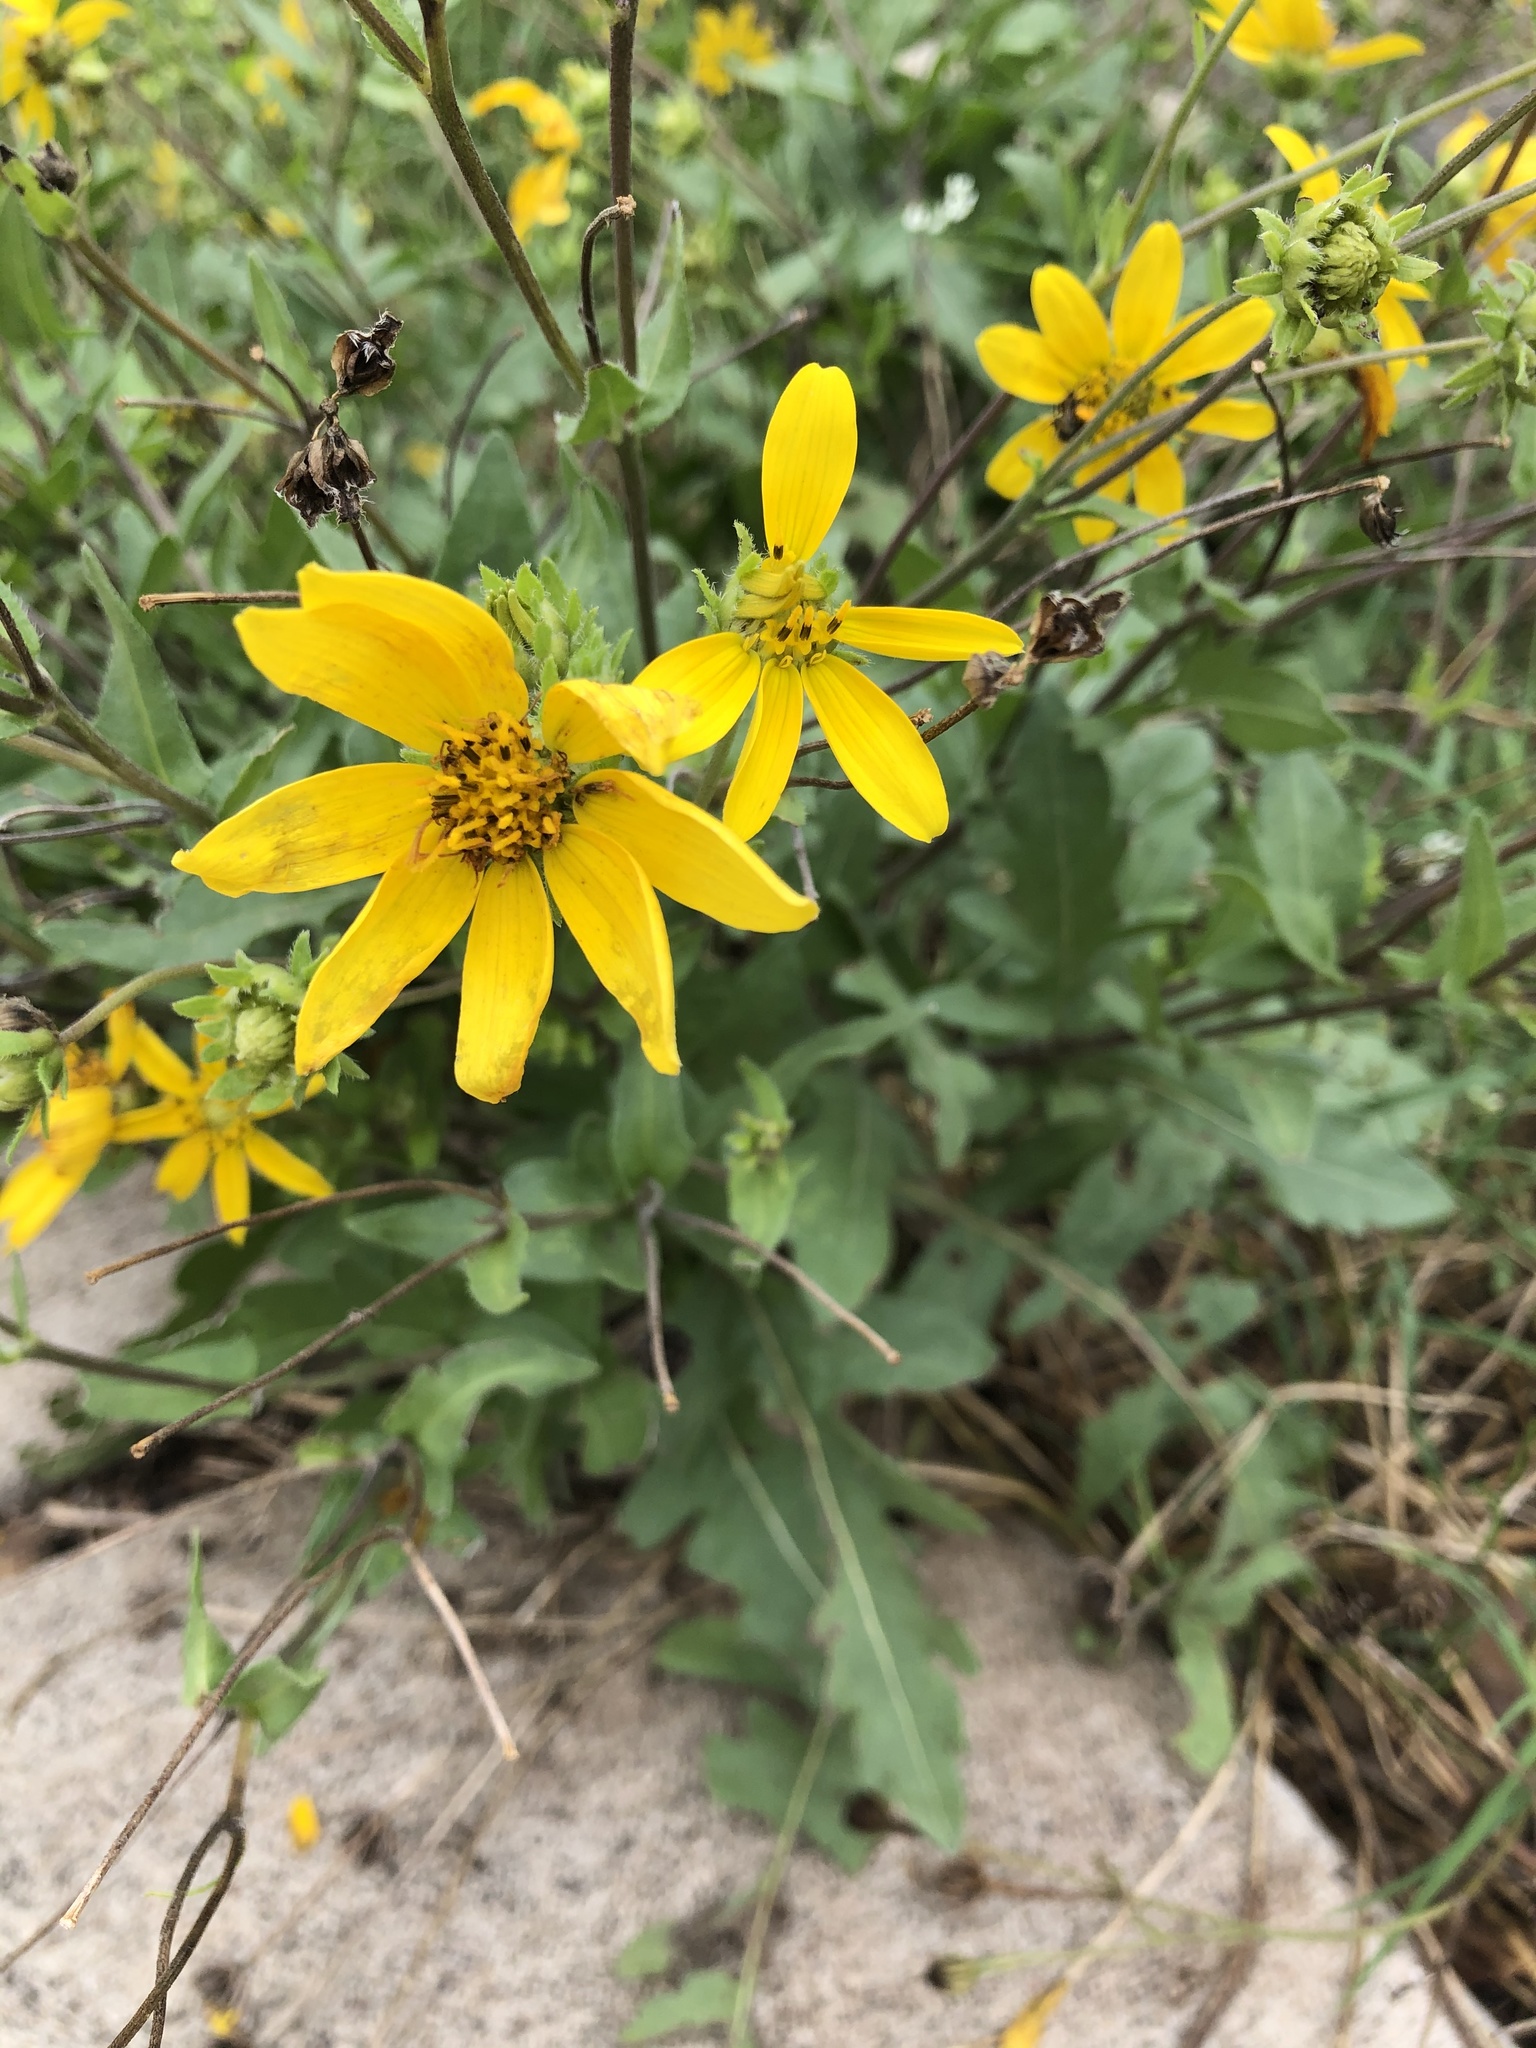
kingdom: Plantae
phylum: Tracheophyta
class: Magnoliopsida
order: Asterales
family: Asteraceae
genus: Engelmannia
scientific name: Engelmannia peristenia
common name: Engelmann's daisy
